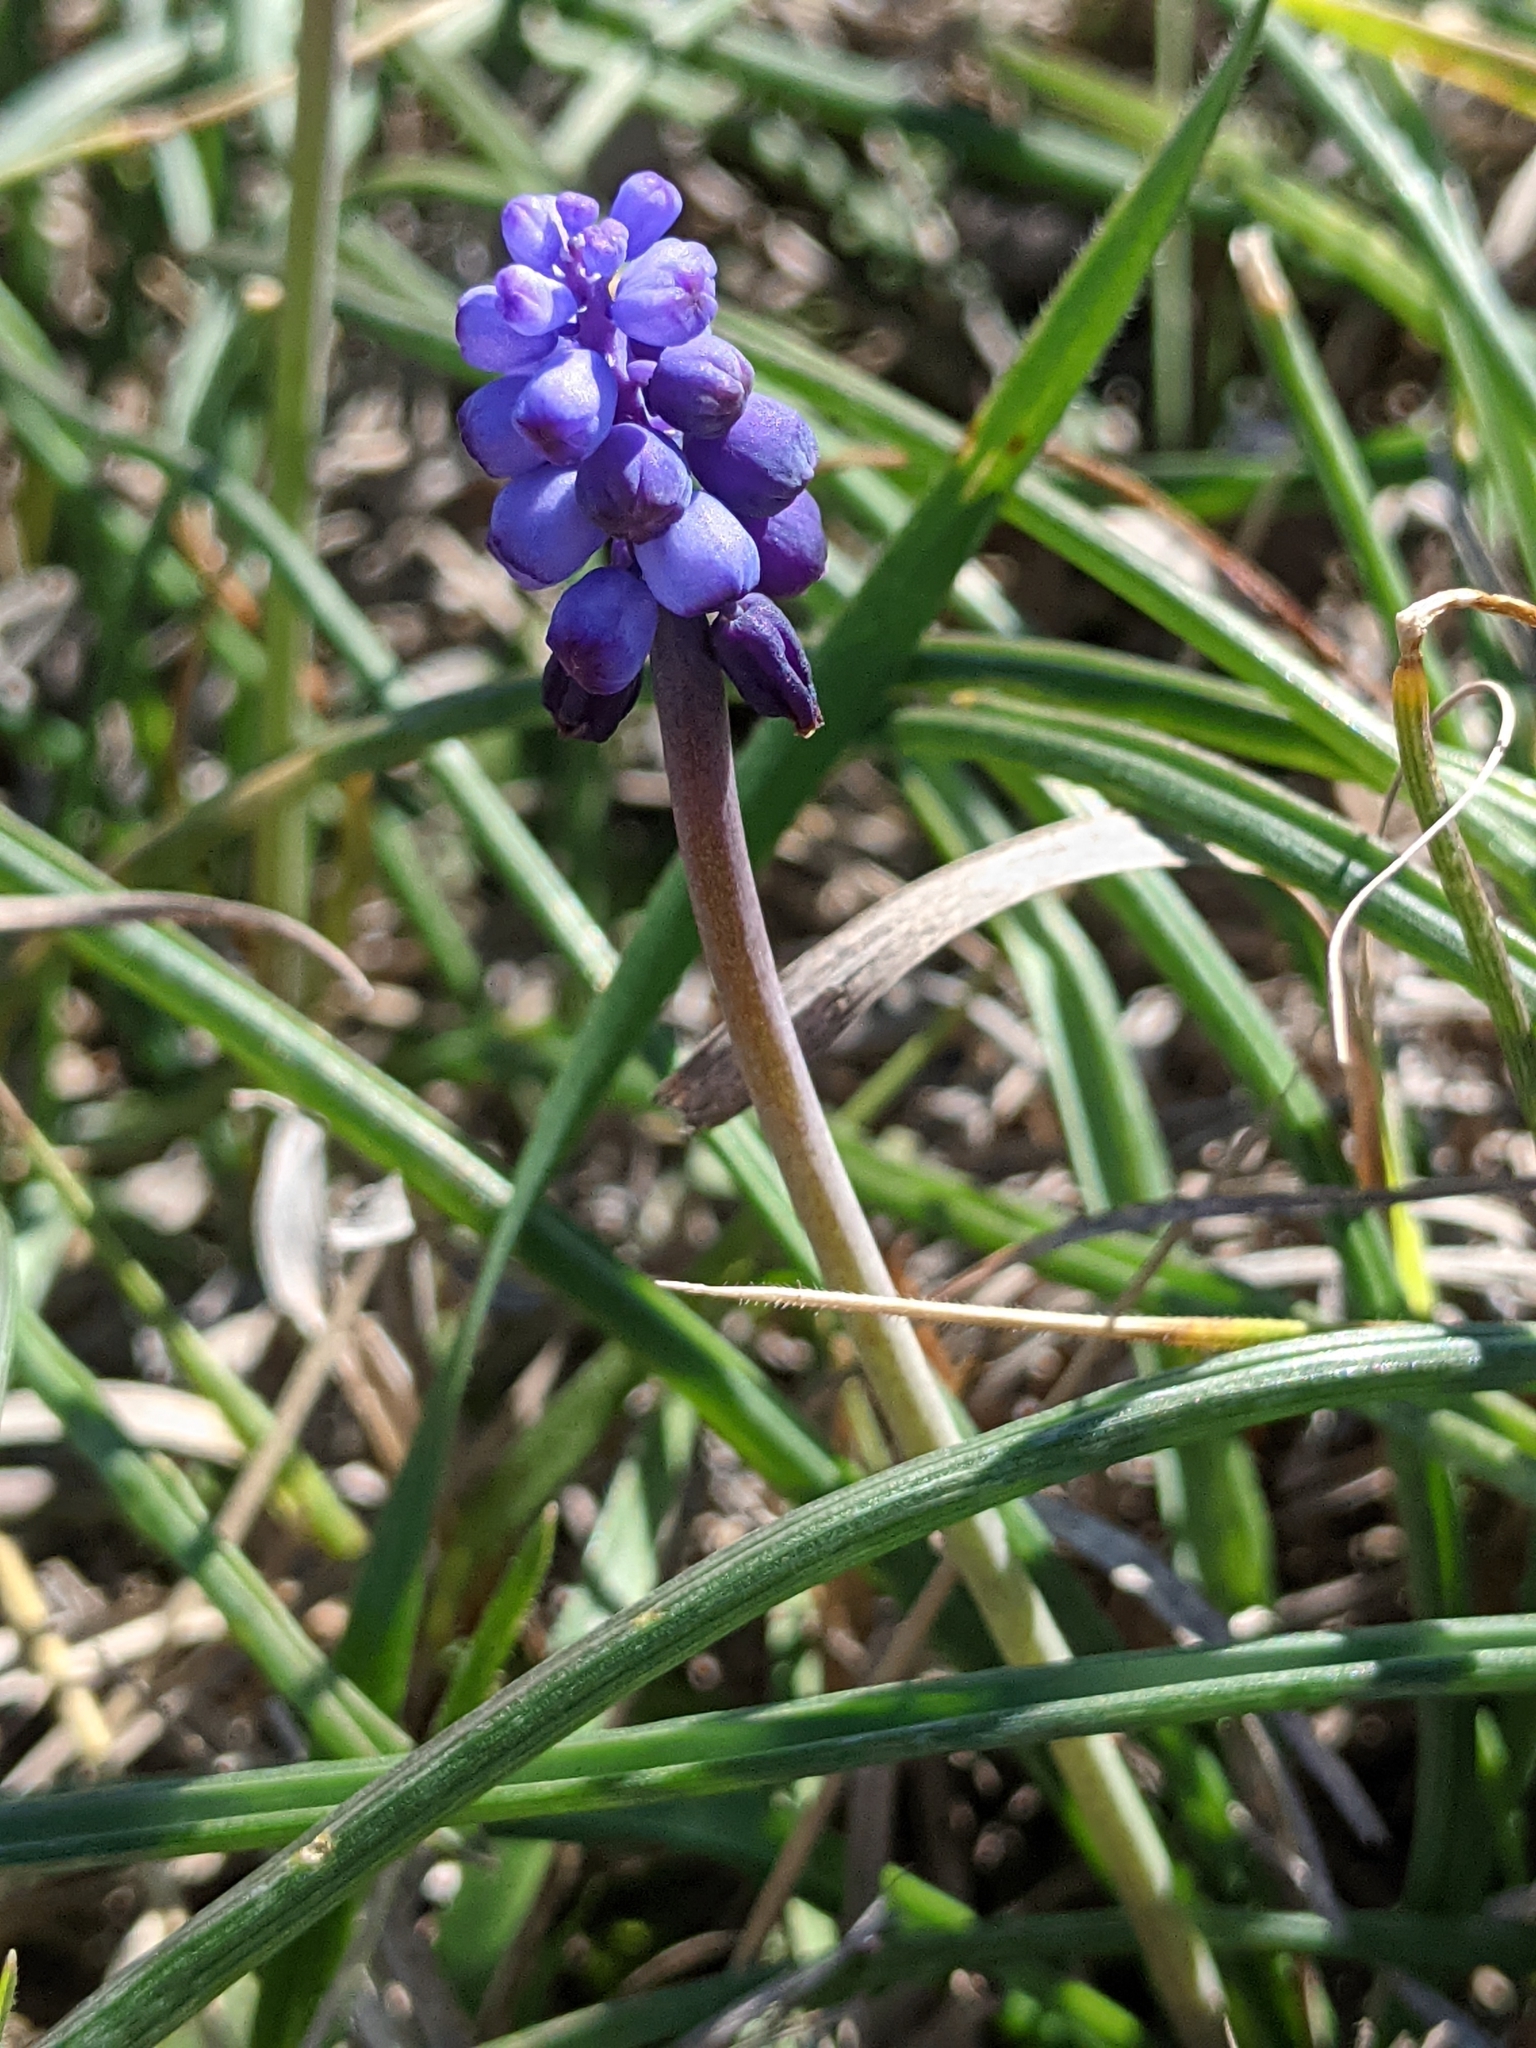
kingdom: Plantae
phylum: Tracheophyta
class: Liliopsida
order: Asparagales
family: Asparagaceae
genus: Muscari
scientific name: Muscari neglectum
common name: Grape-hyacinth
